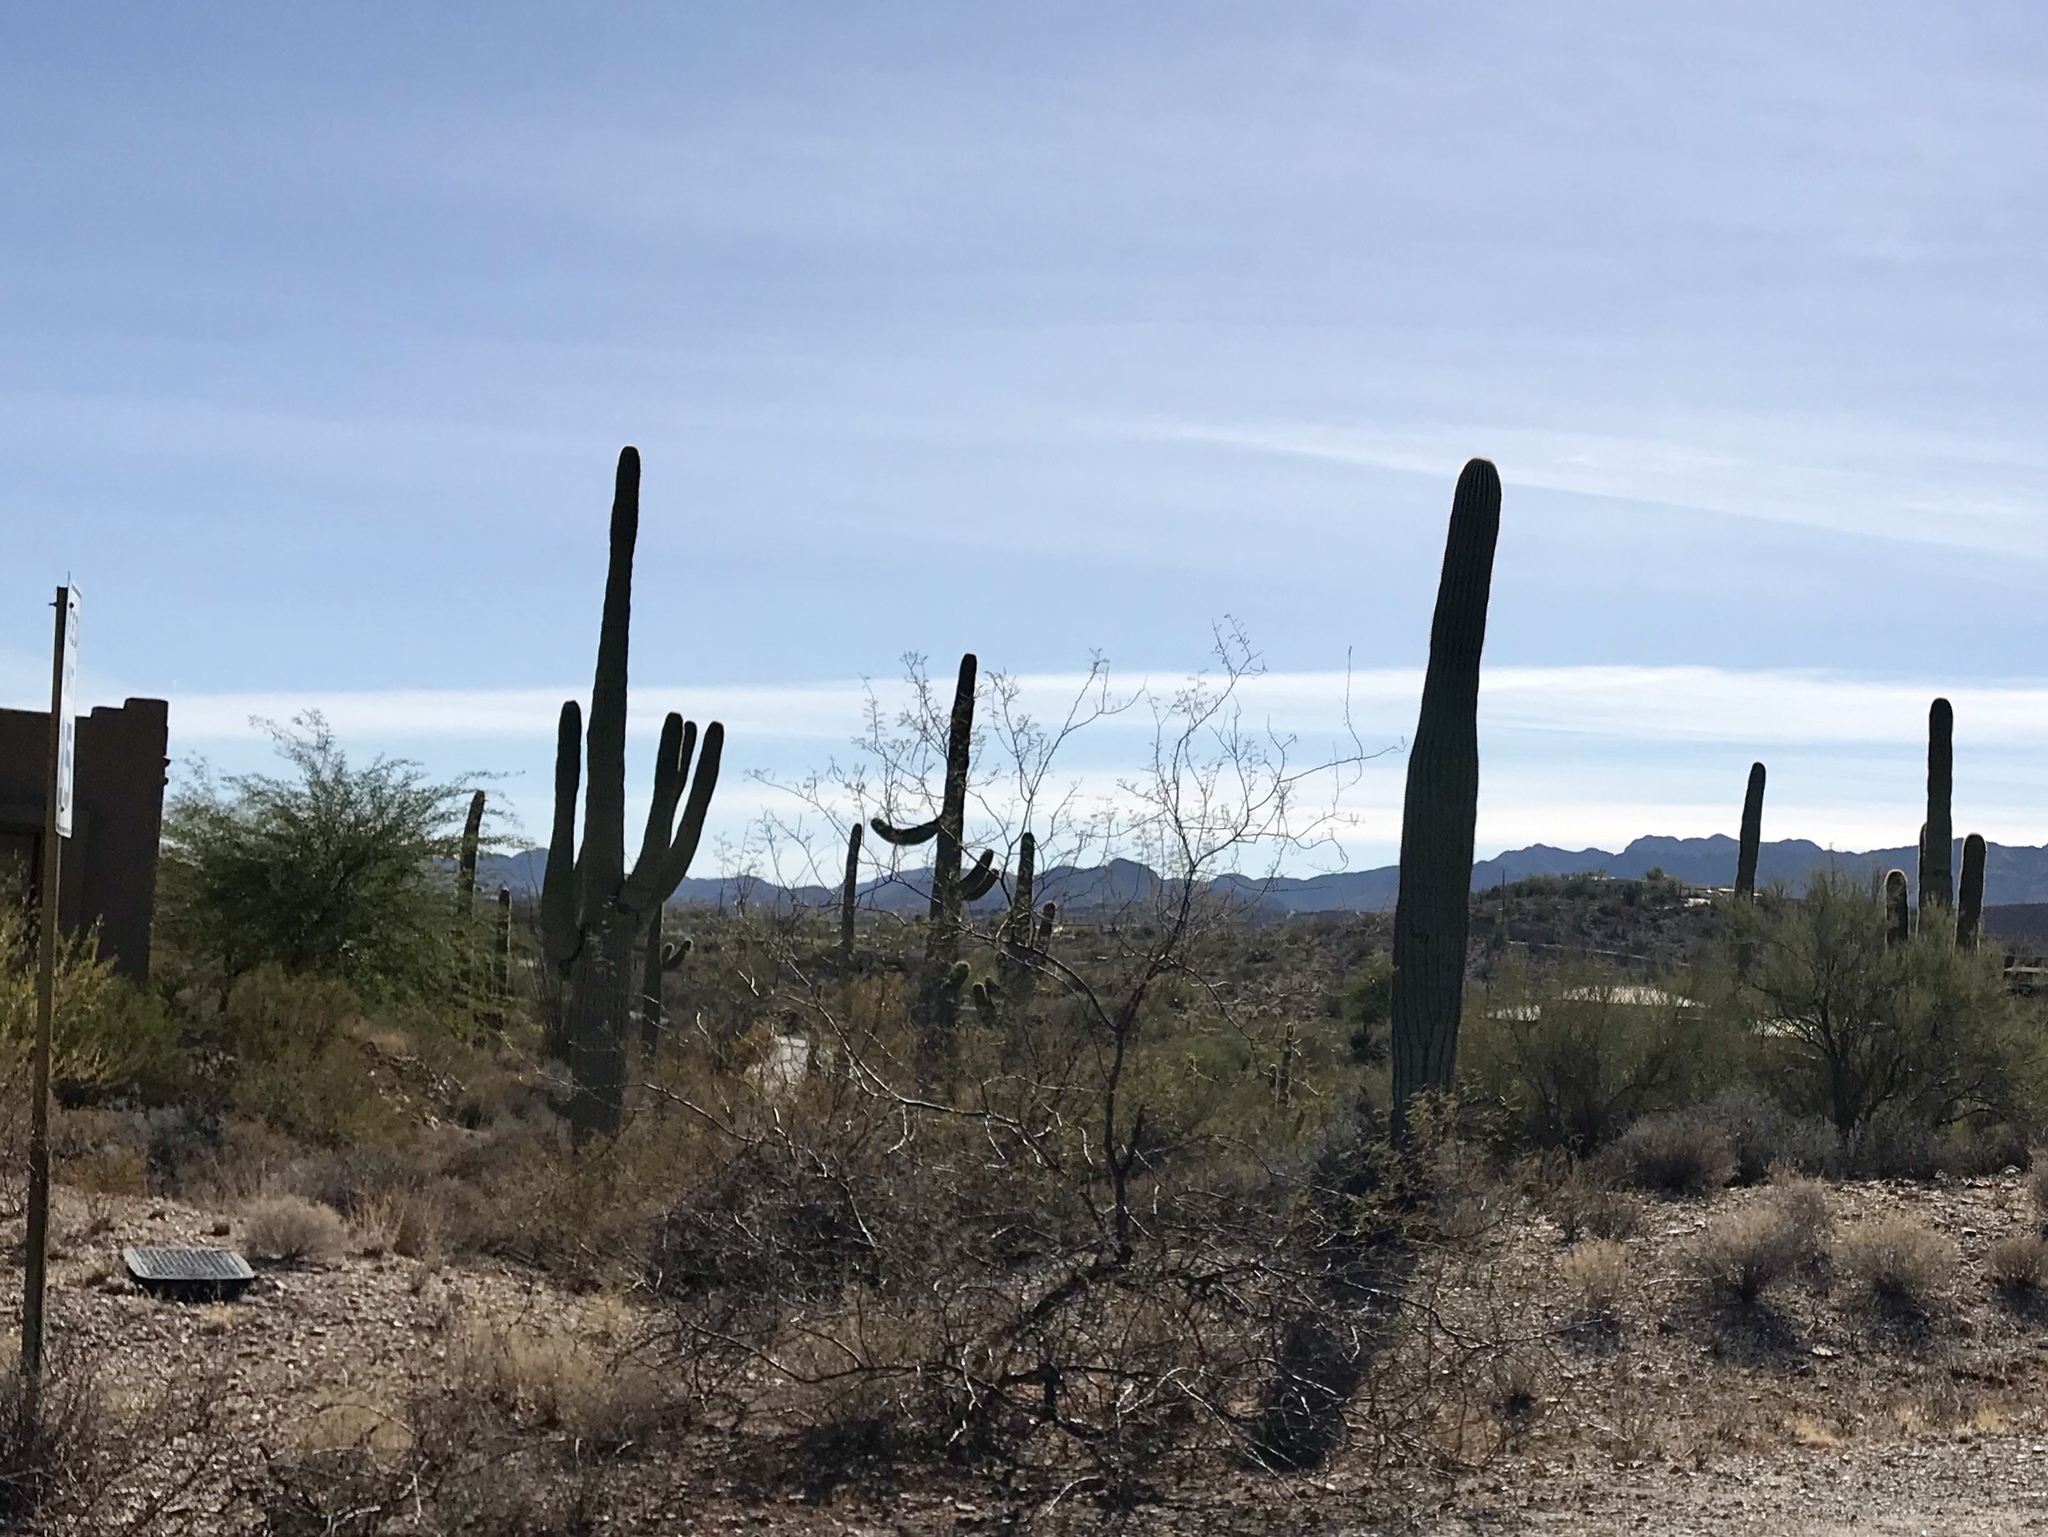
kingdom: Plantae
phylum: Tracheophyta
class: Magnoliopsida
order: Caryophyllales
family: Cactaceae
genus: Carnegiea
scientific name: Carnegiea gigantea
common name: Saguaro
